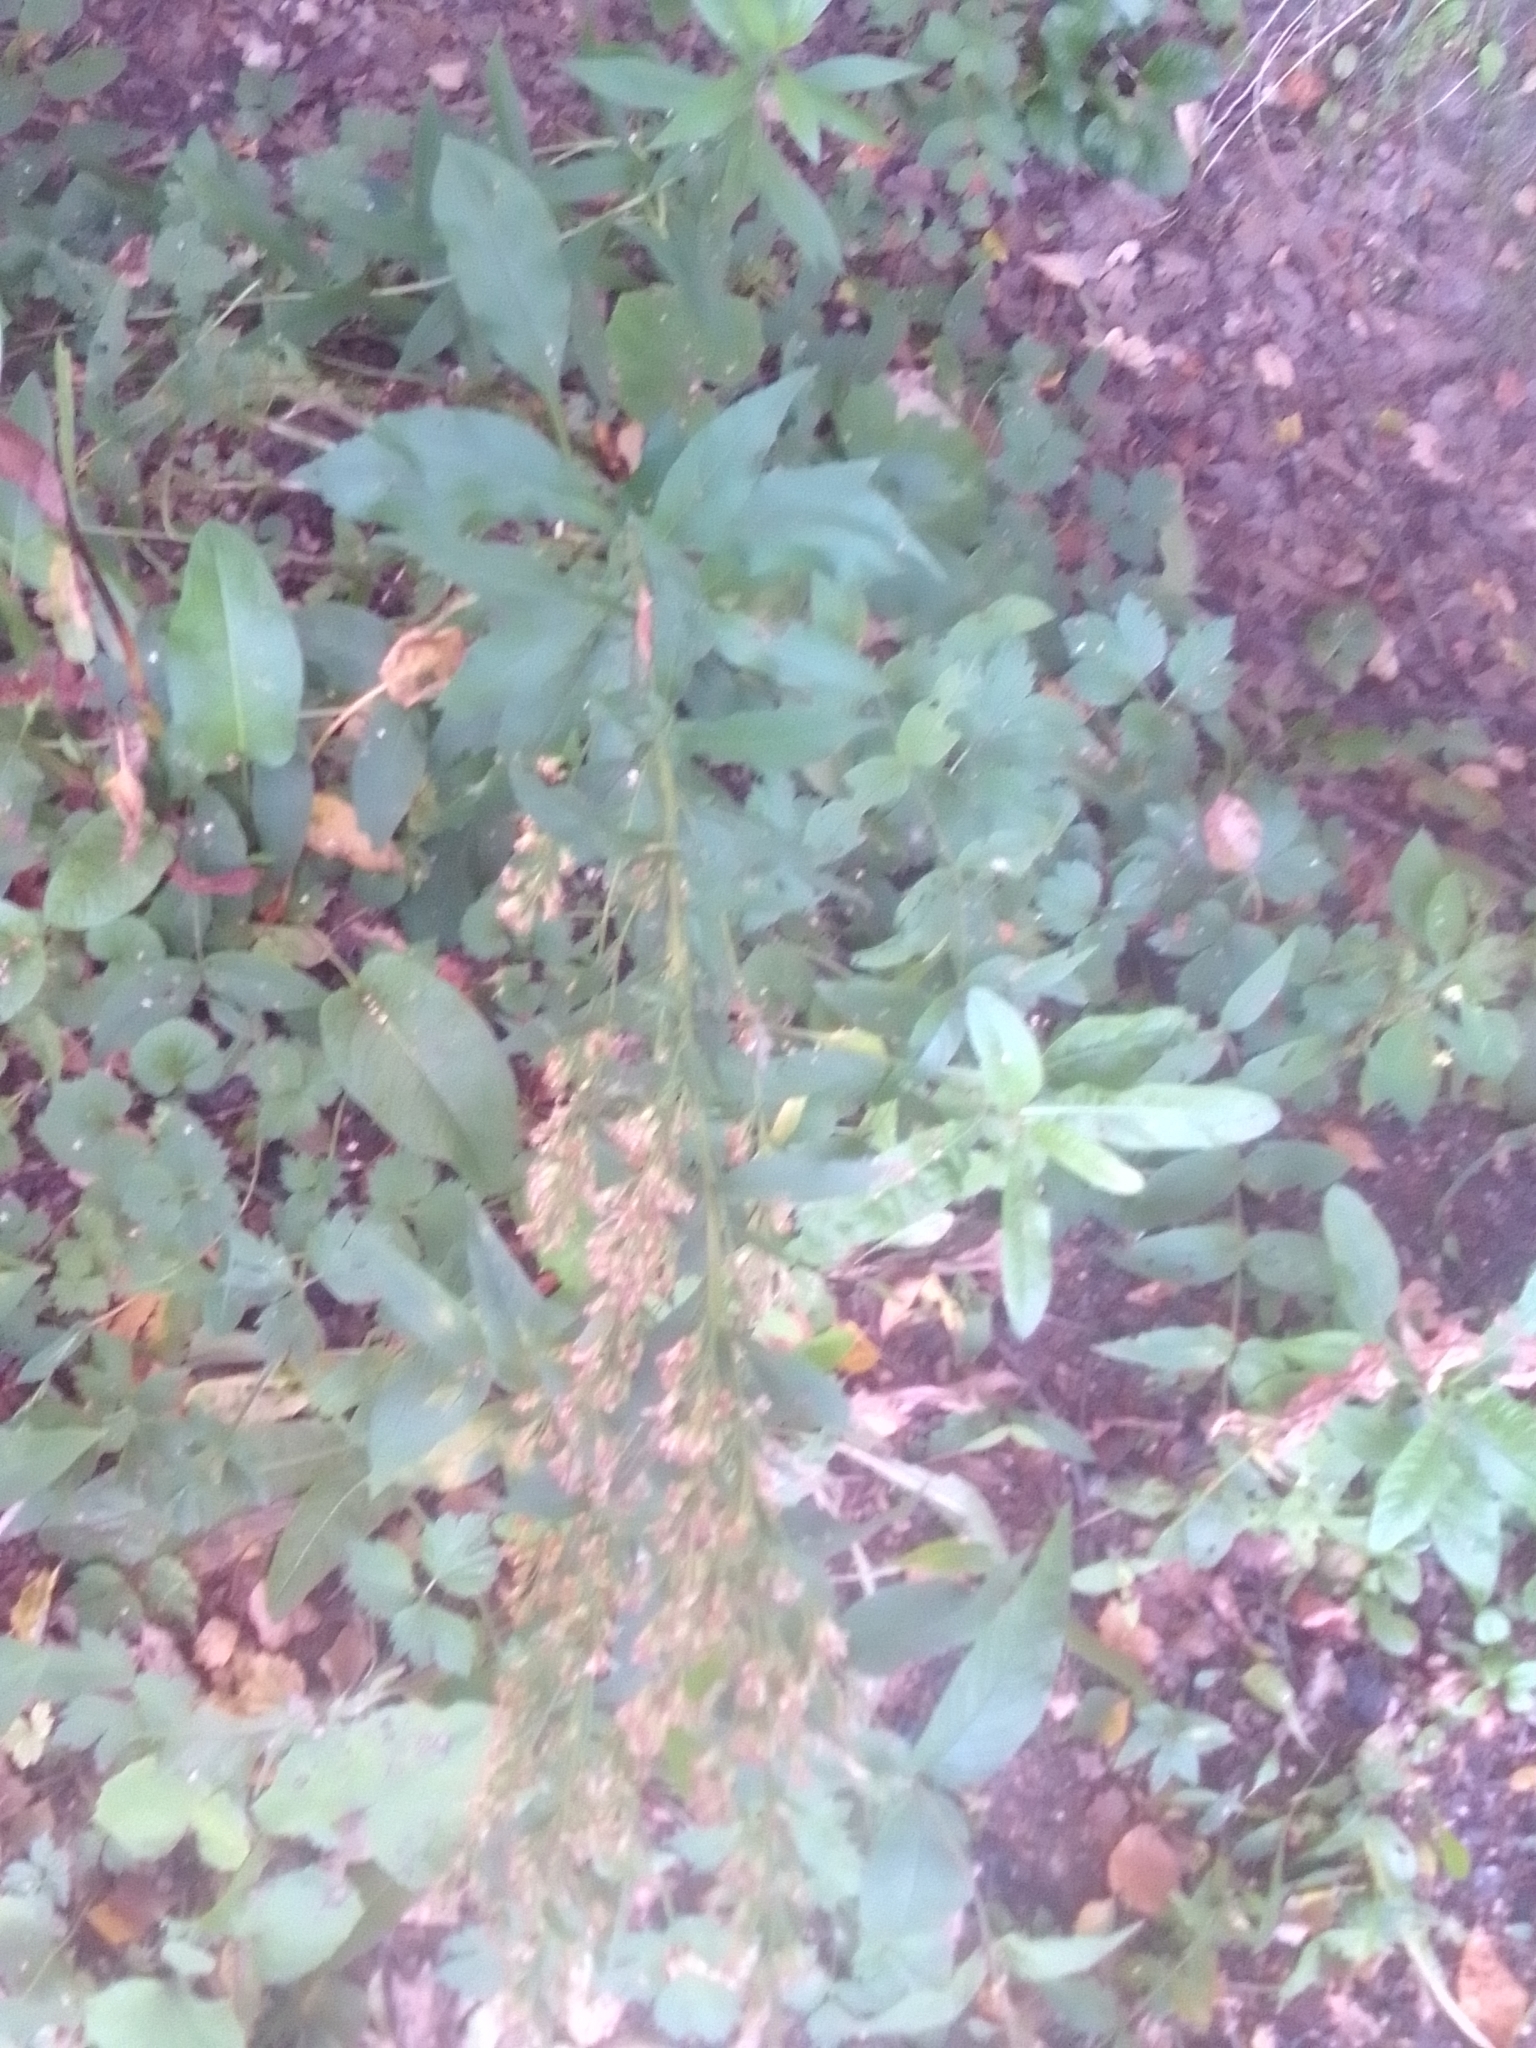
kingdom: Plantae
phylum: Tracheophyta
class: Magnoliopsida
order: Asterales
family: Asteraceae
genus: Solidago
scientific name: Solidago virgaurea
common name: Goldenrod
